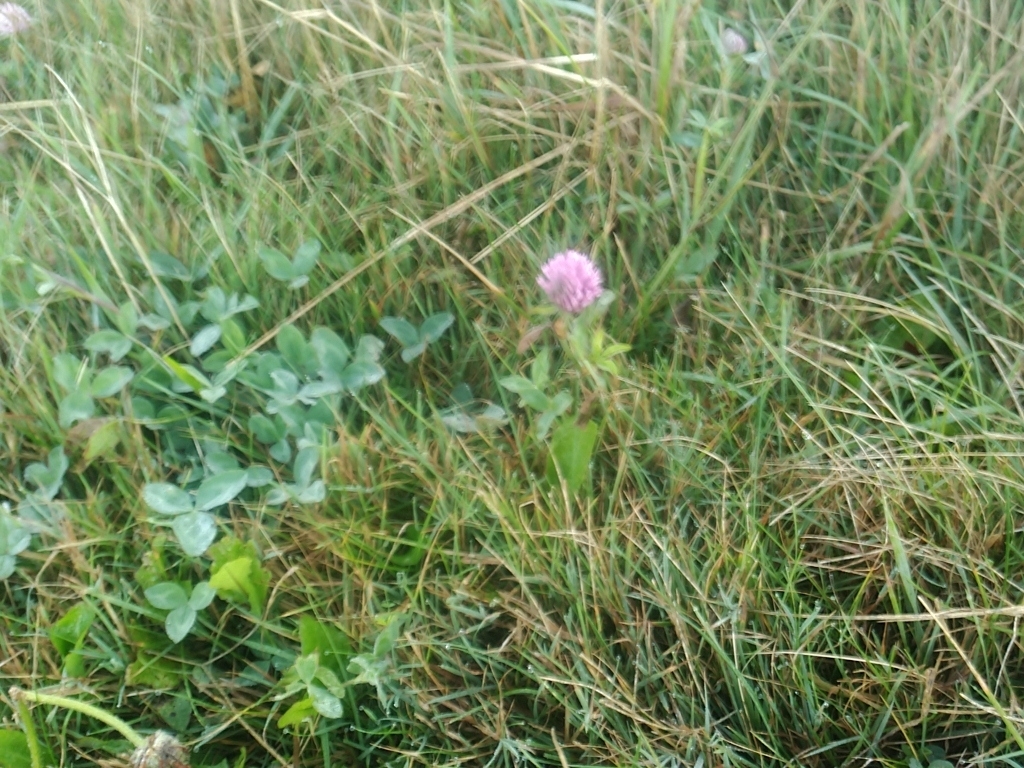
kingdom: Plantae
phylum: Tracheophyta
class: Magnoliopsida
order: Fabales
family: Fabaceae
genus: Trifolium
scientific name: Trifolium pratense
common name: Red clover
